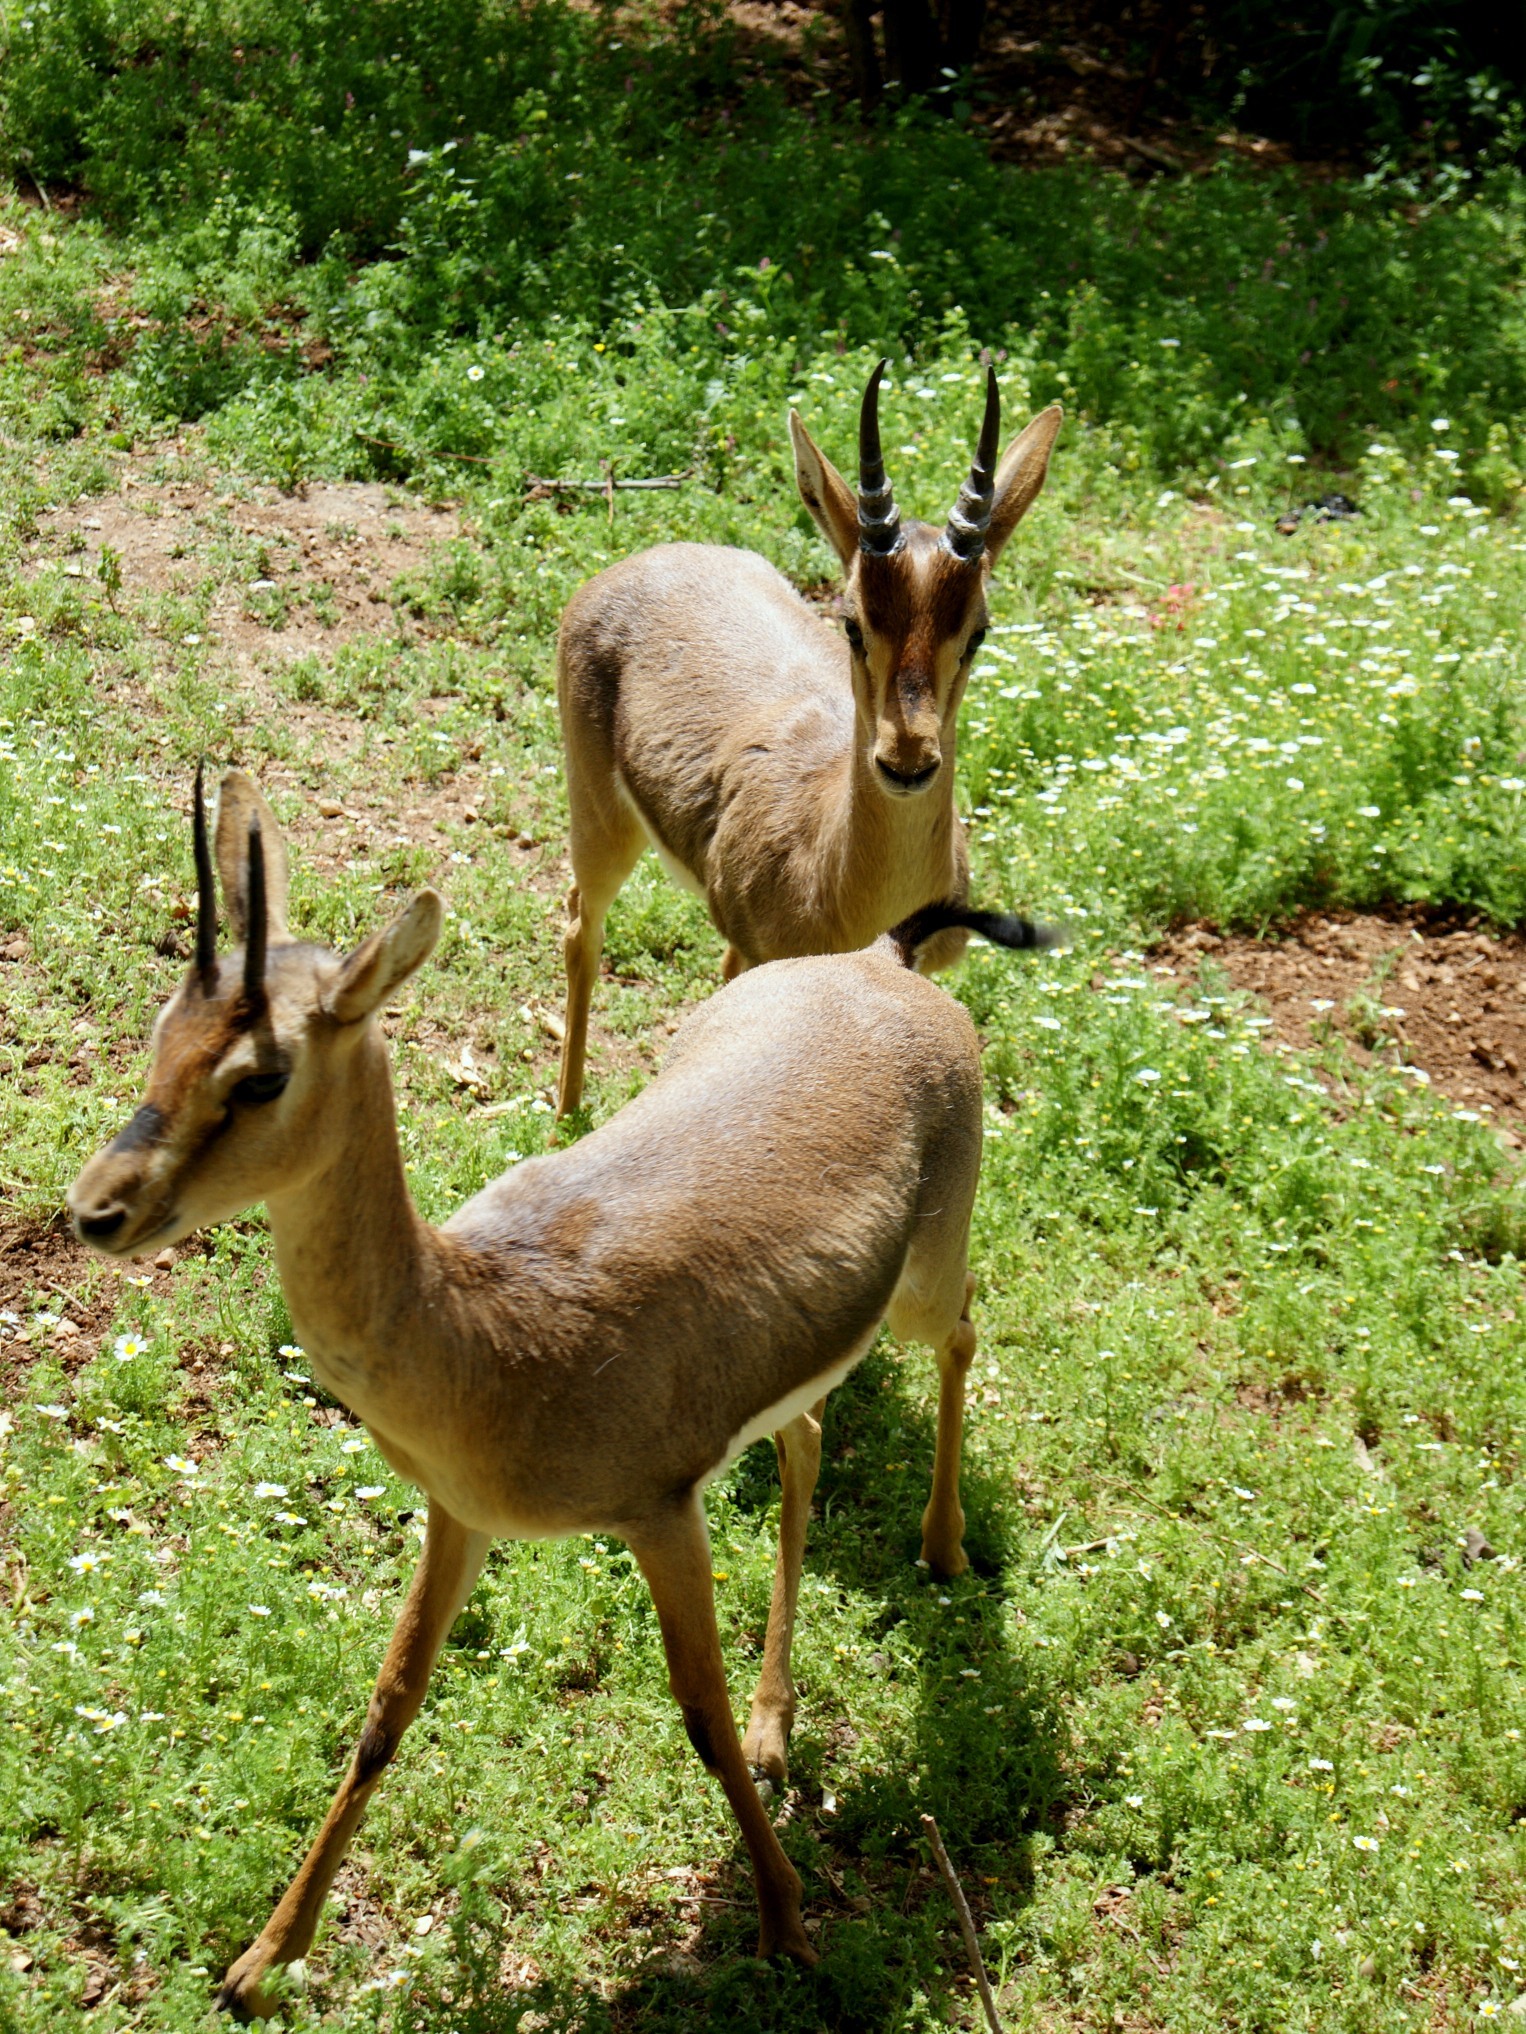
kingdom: Animalia
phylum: Chordata
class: Mammalia
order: Artiodactyla
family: Bovidae
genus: Gazella
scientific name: Gazella gazella
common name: Mountain gazelle
